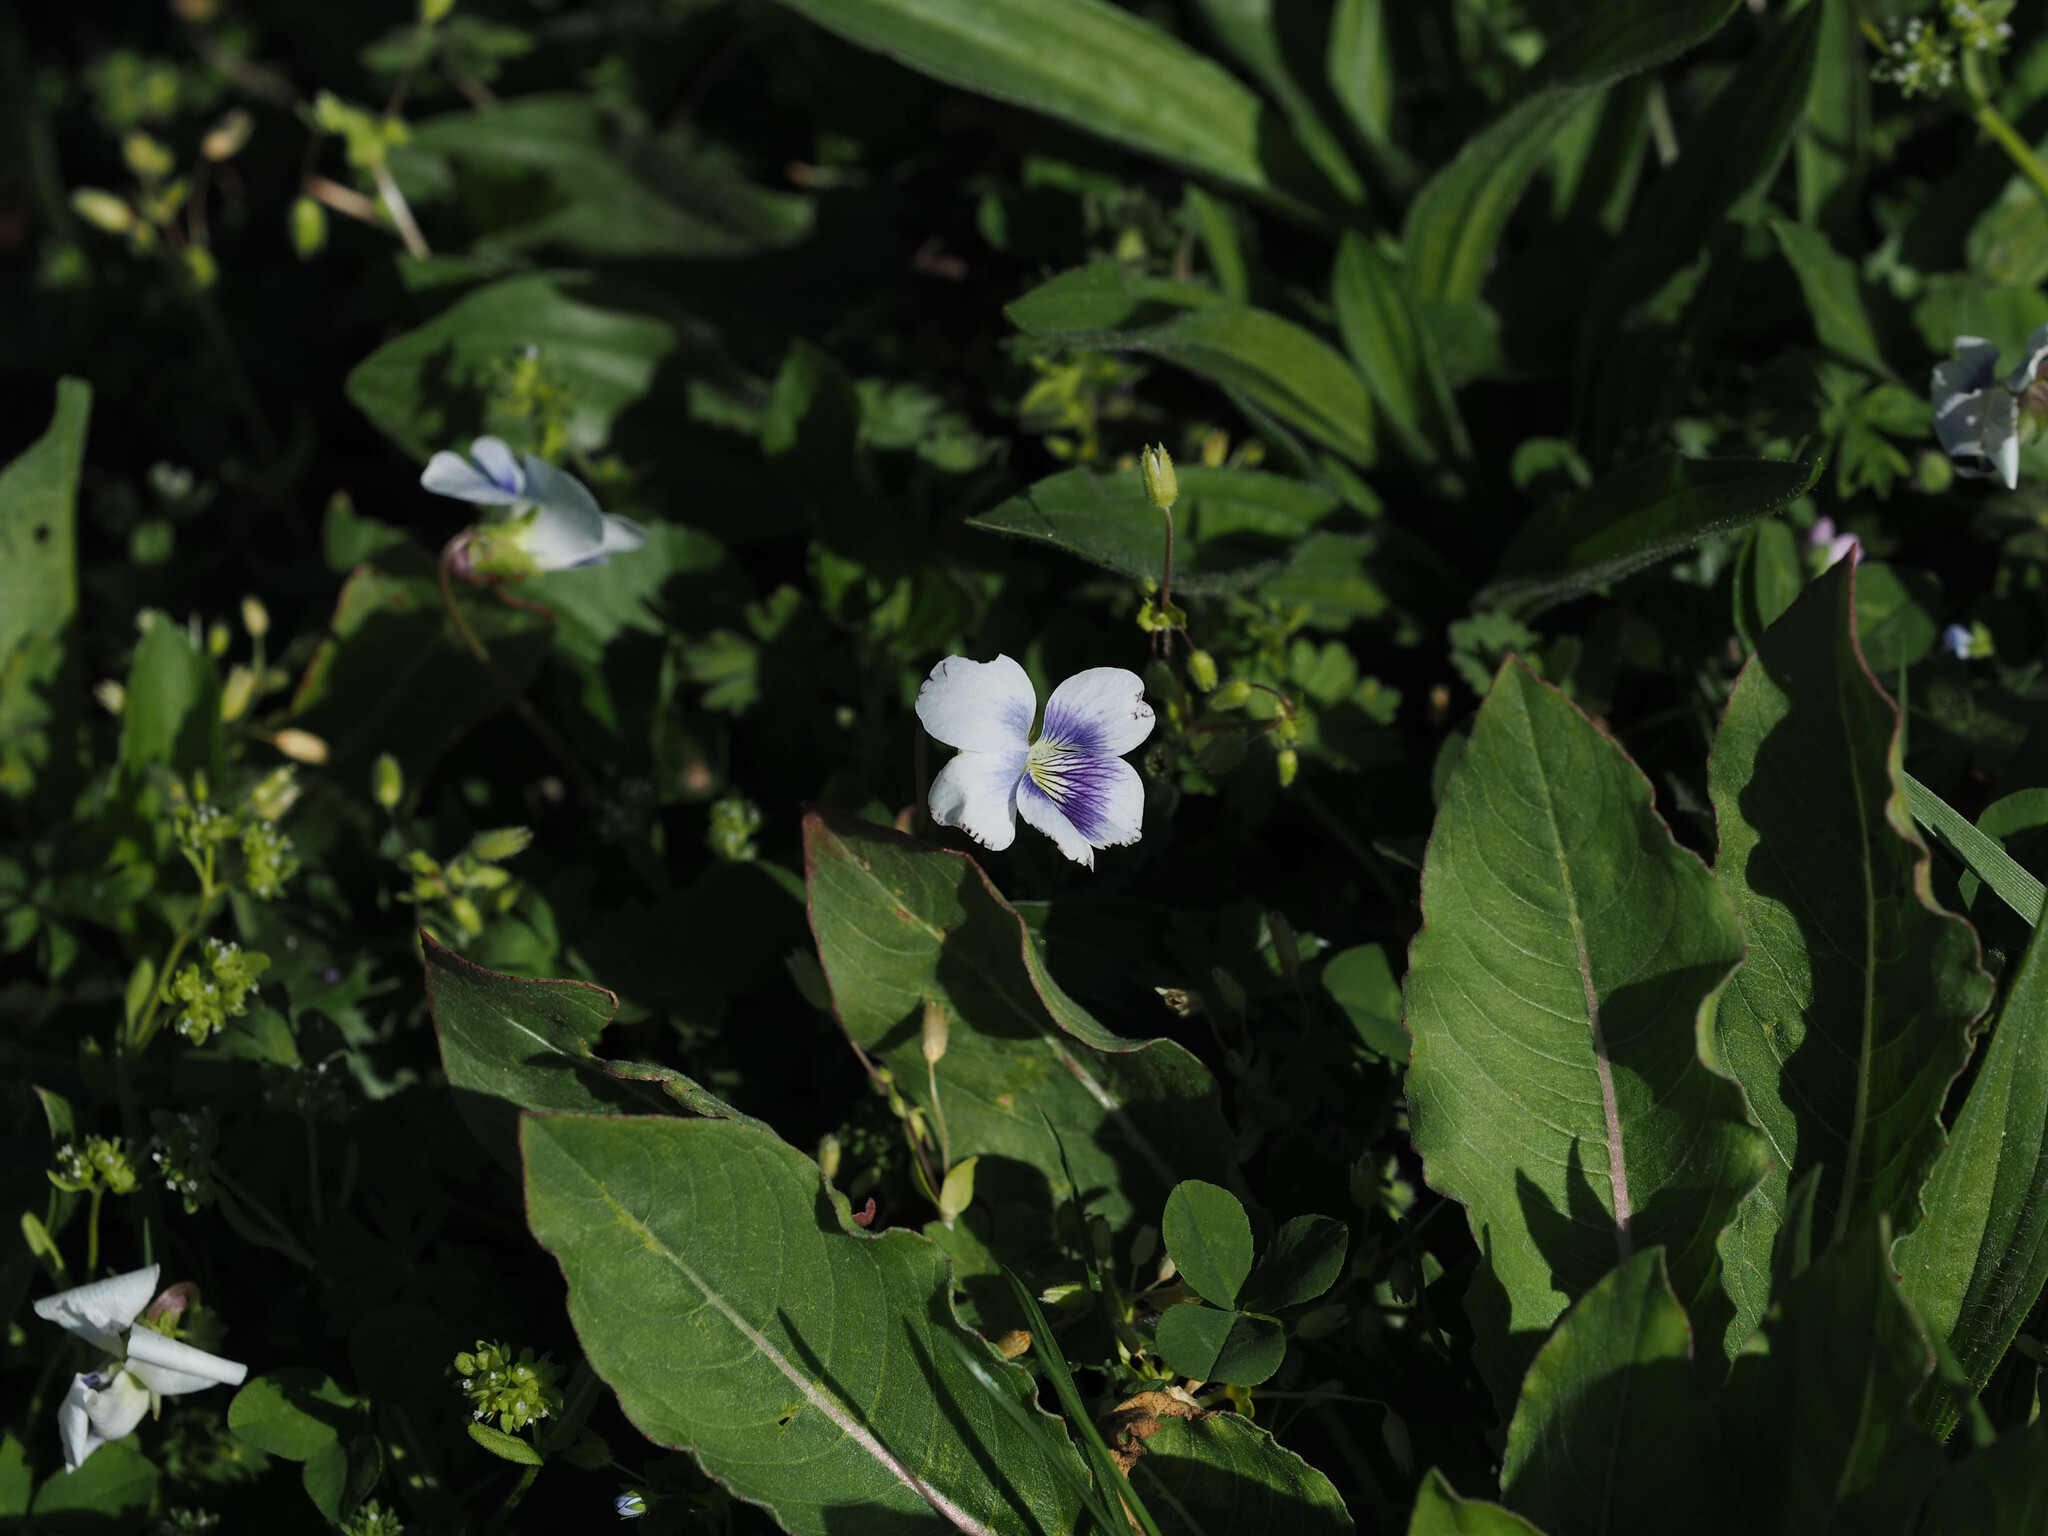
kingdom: Plantae
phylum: Tracheophyta
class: Magnoliopsida
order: Malpighiales
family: Violaceae
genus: Viola
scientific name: Viola sororia
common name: Dooryard violet
